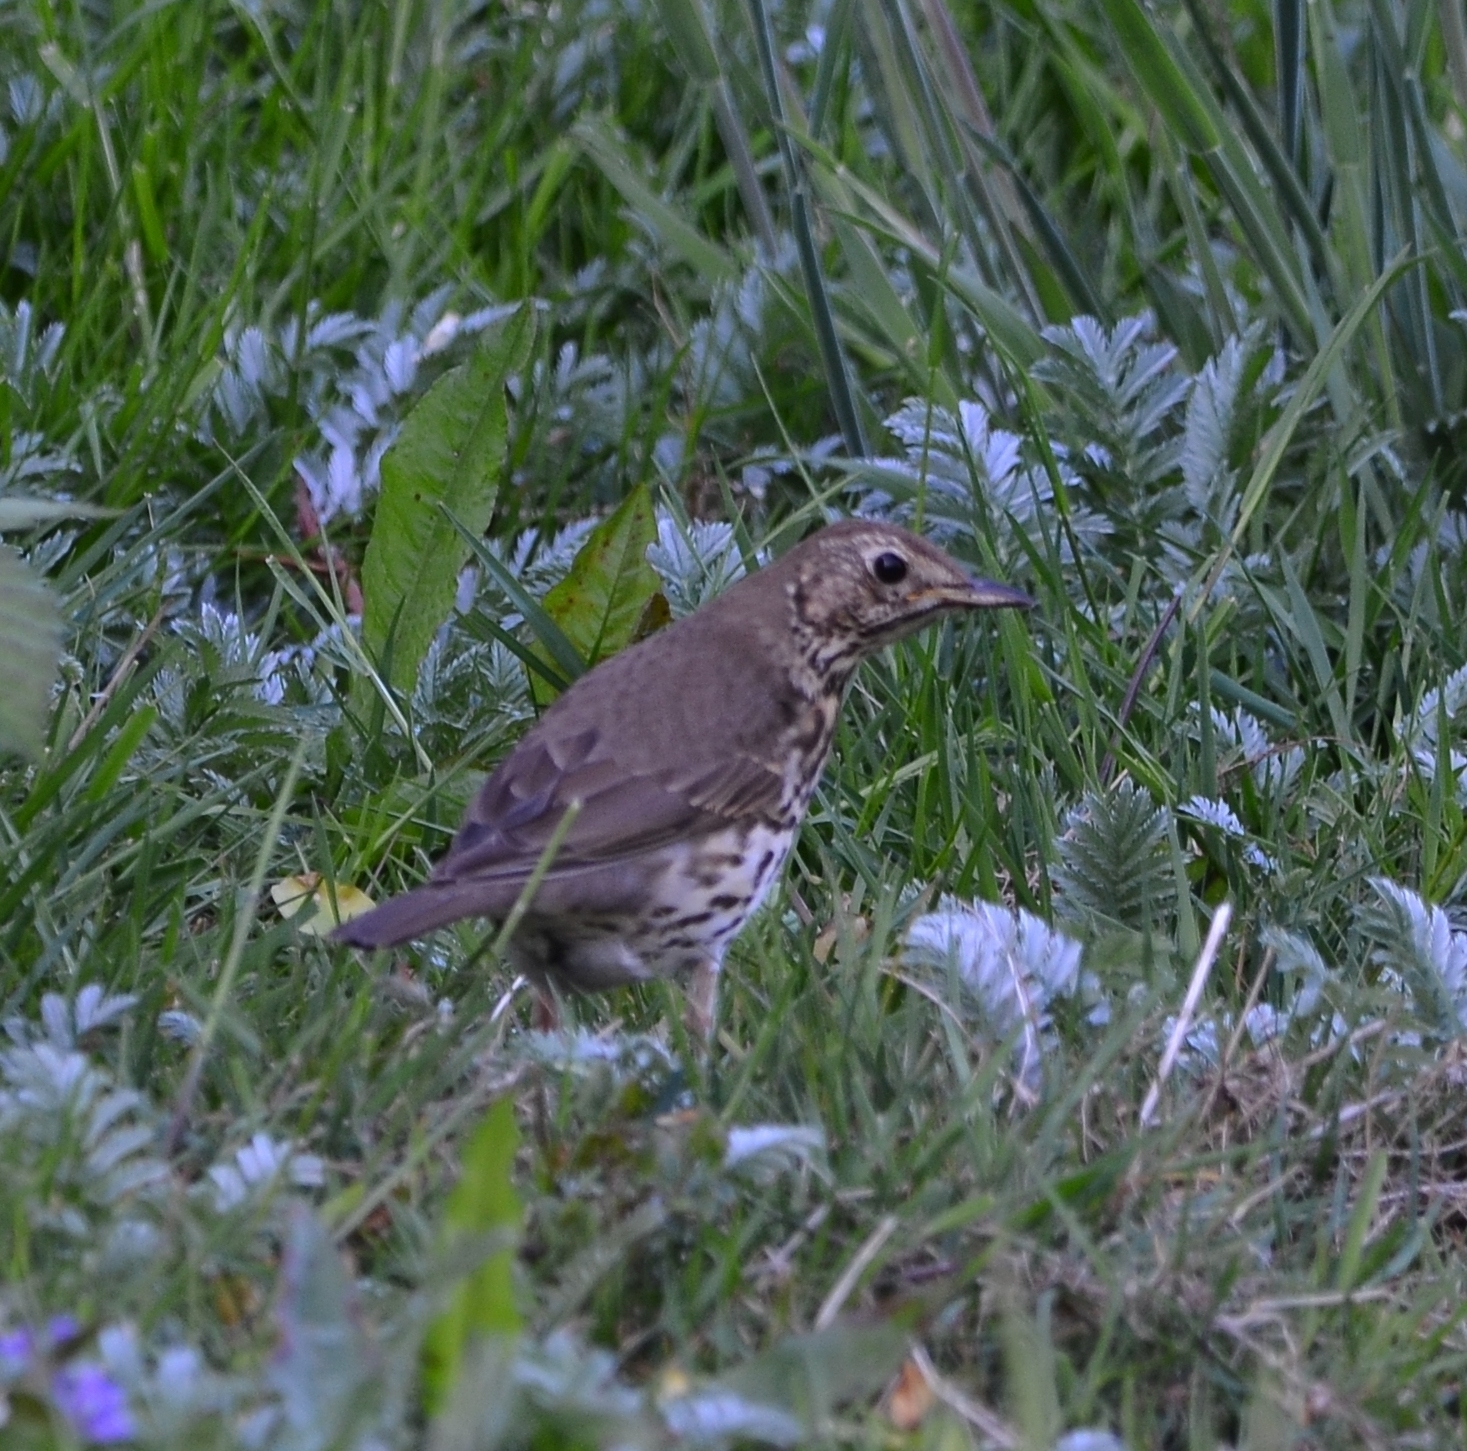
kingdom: Animalia
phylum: Chordata
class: Aves
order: Passeriformes
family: Turdidae
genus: Turdus
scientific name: Turdus philomelos
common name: Song thrush
